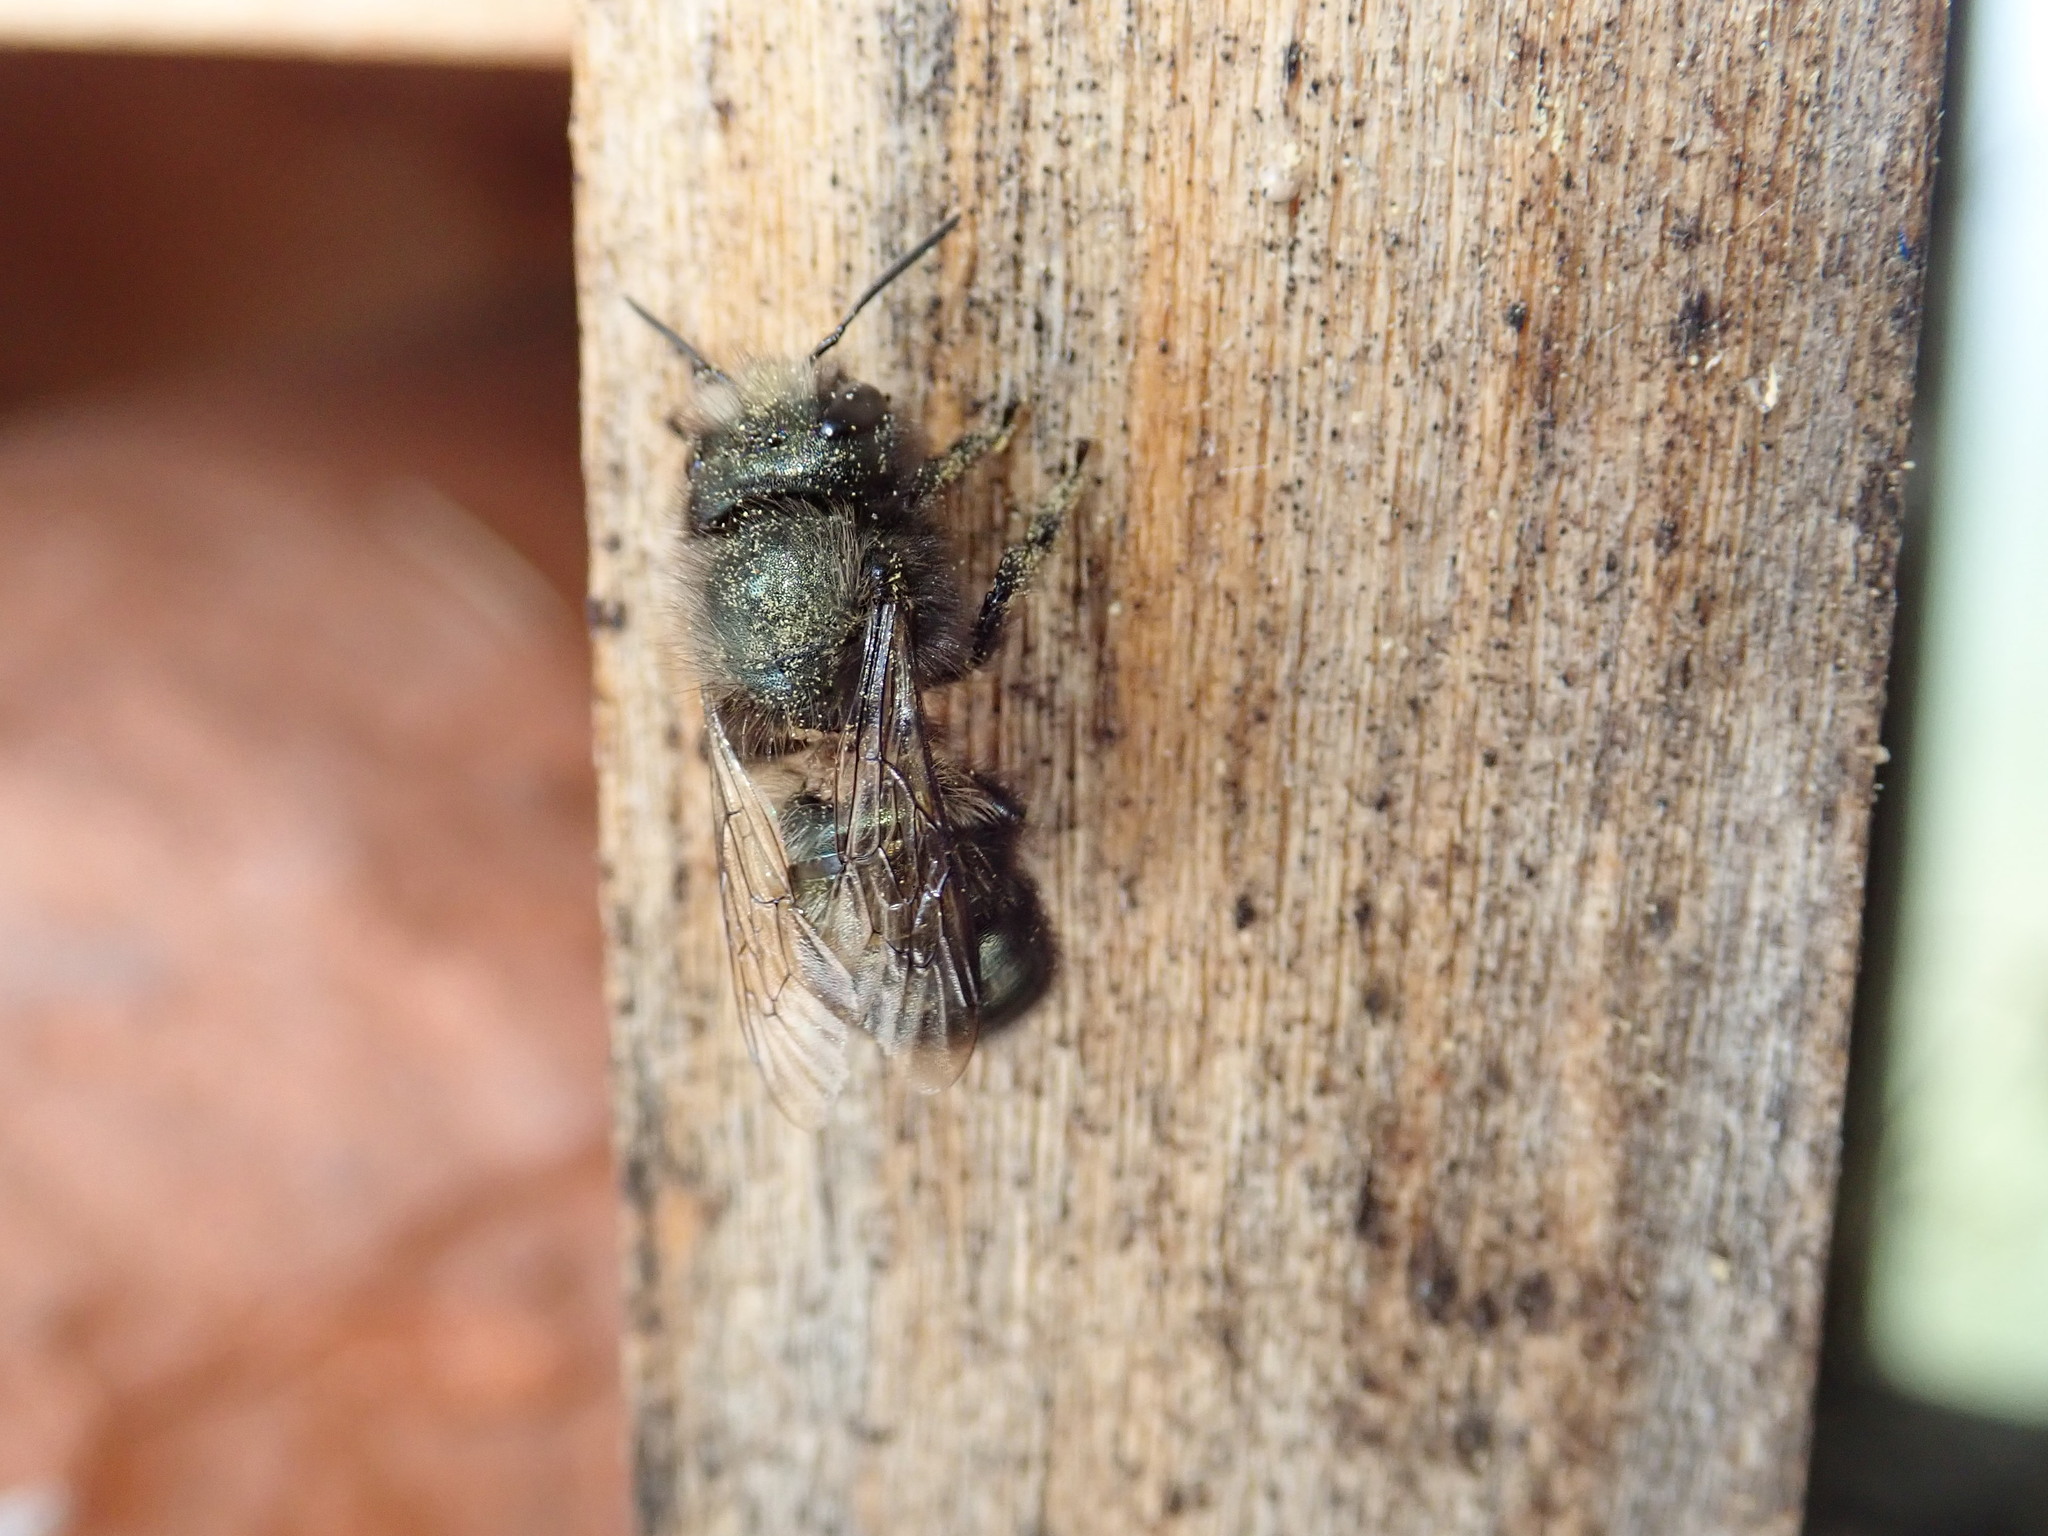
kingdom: Animalia
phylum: Arthropoda
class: Insecta
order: Hymenoptera
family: Megachilidae
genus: Osmia
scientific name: Osmia lignaria
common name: Blue orchard bee
